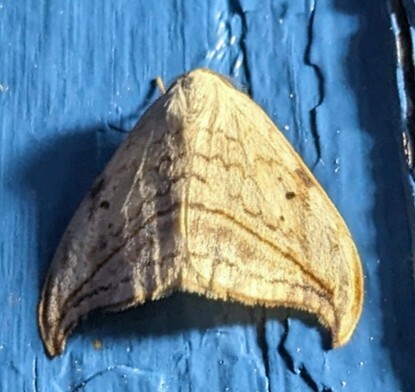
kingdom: Animalia
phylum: Arthropoda
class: Insecta
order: Lepidoptera
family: Drepanidae
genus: Drepana
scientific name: Drepana arcuata
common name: Arched hooktip moth
